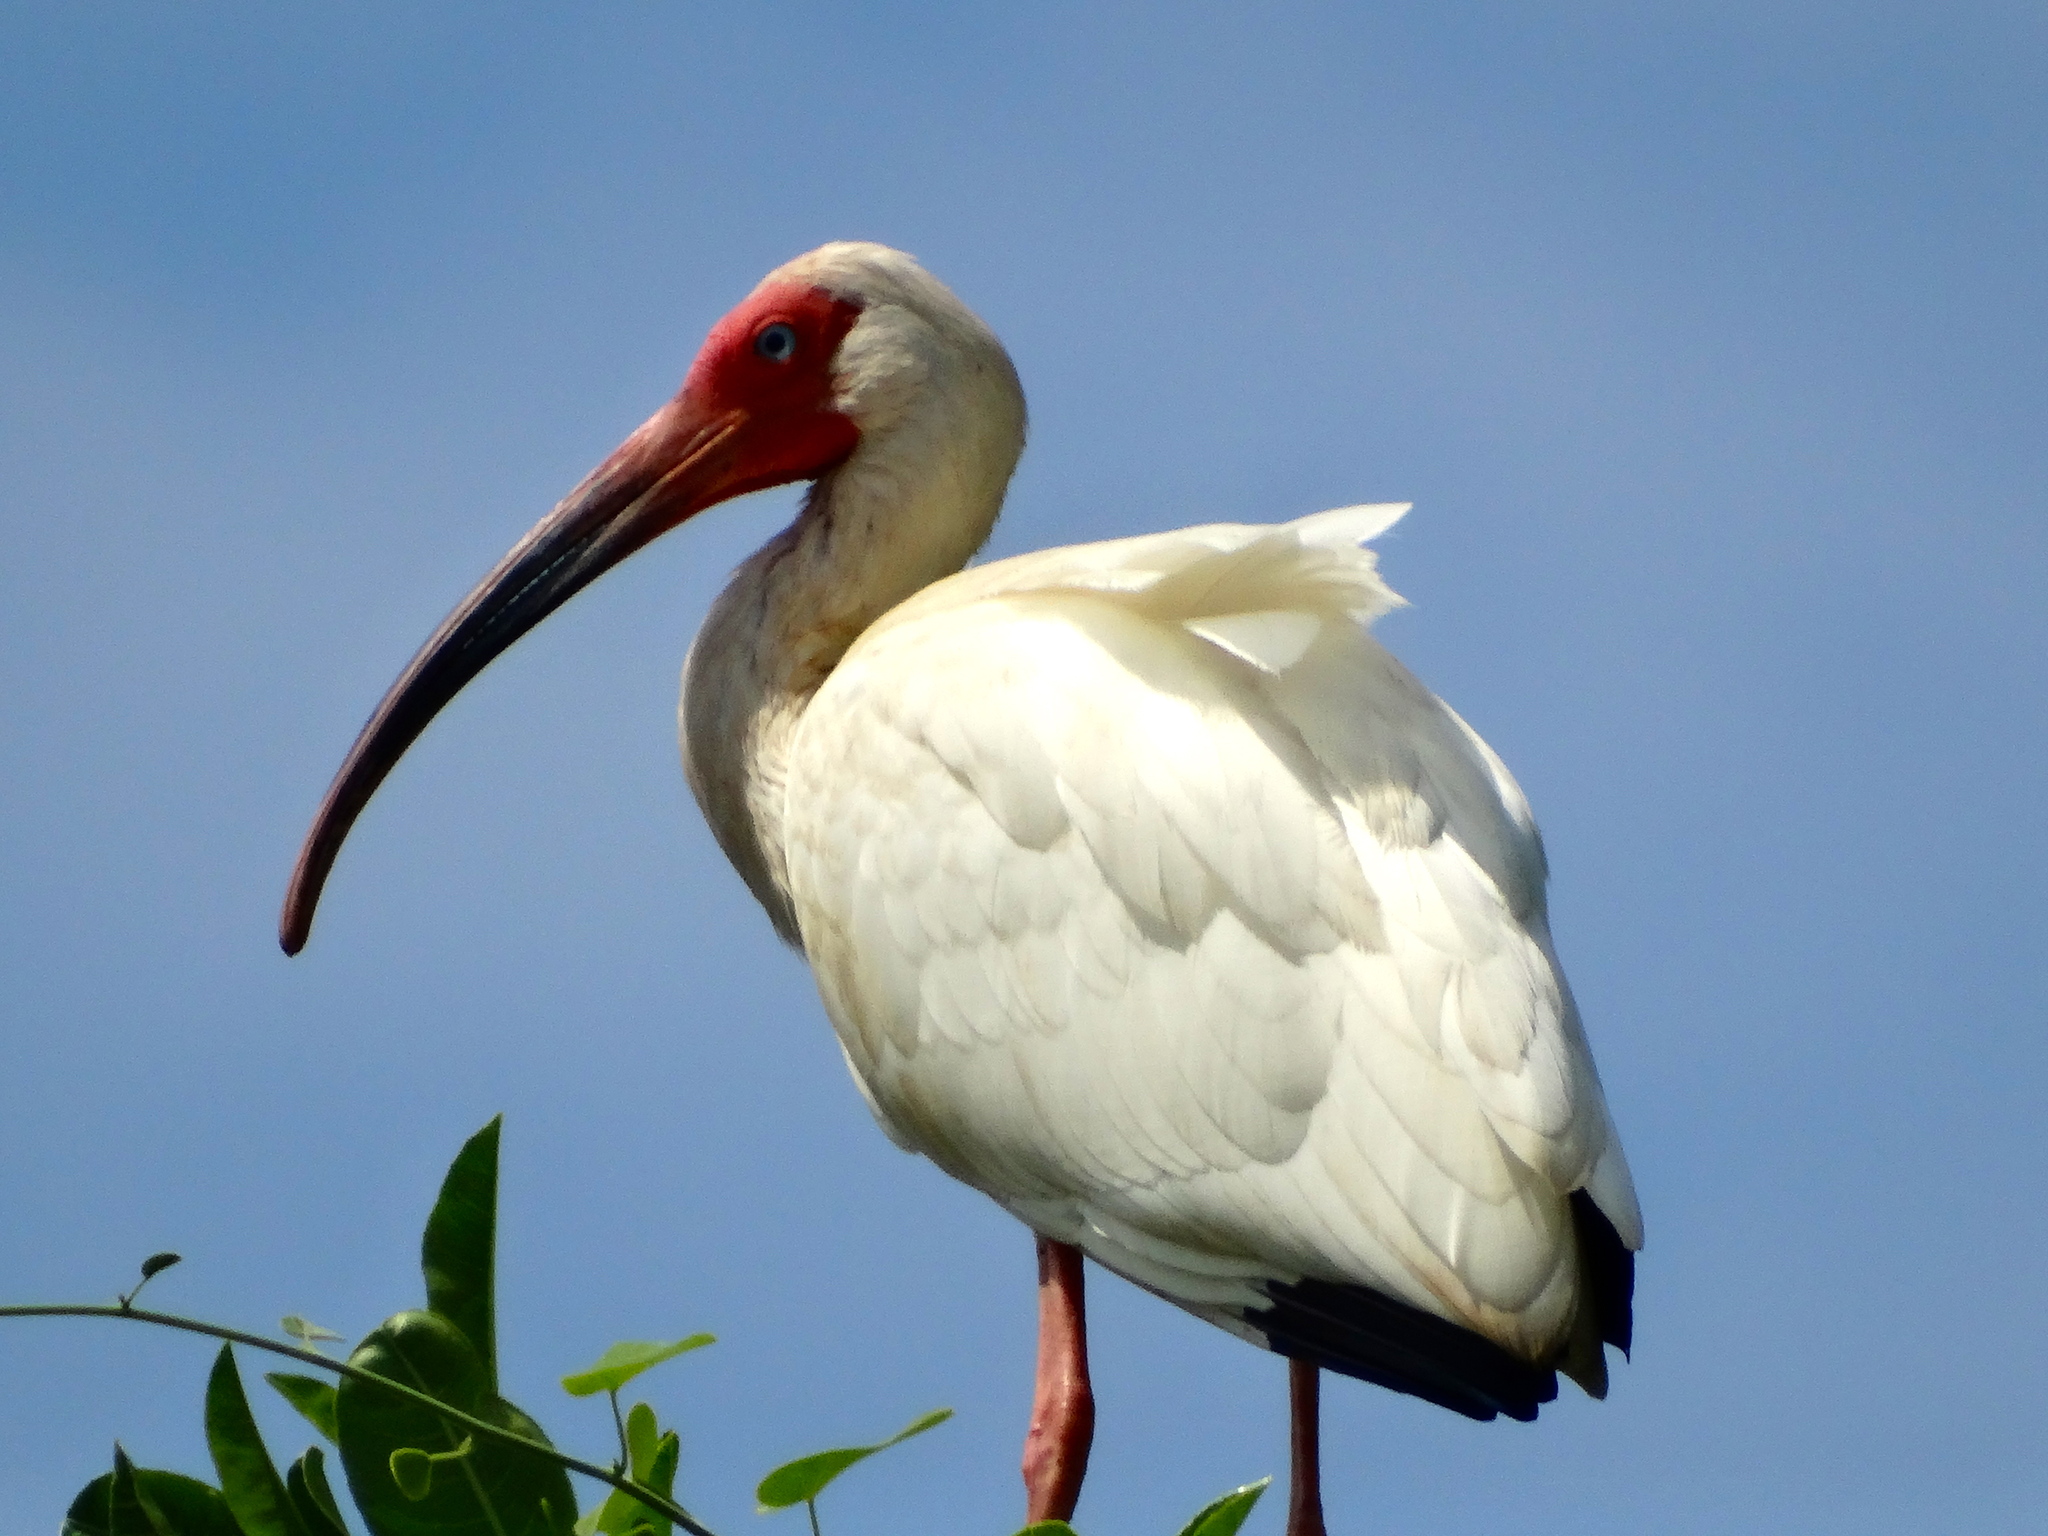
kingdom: Animalia
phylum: Chordata
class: Aves
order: Pelecaniformes
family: Threskiornithidae
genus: Eudocimus
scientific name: Eudocimus albus
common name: White ibis
